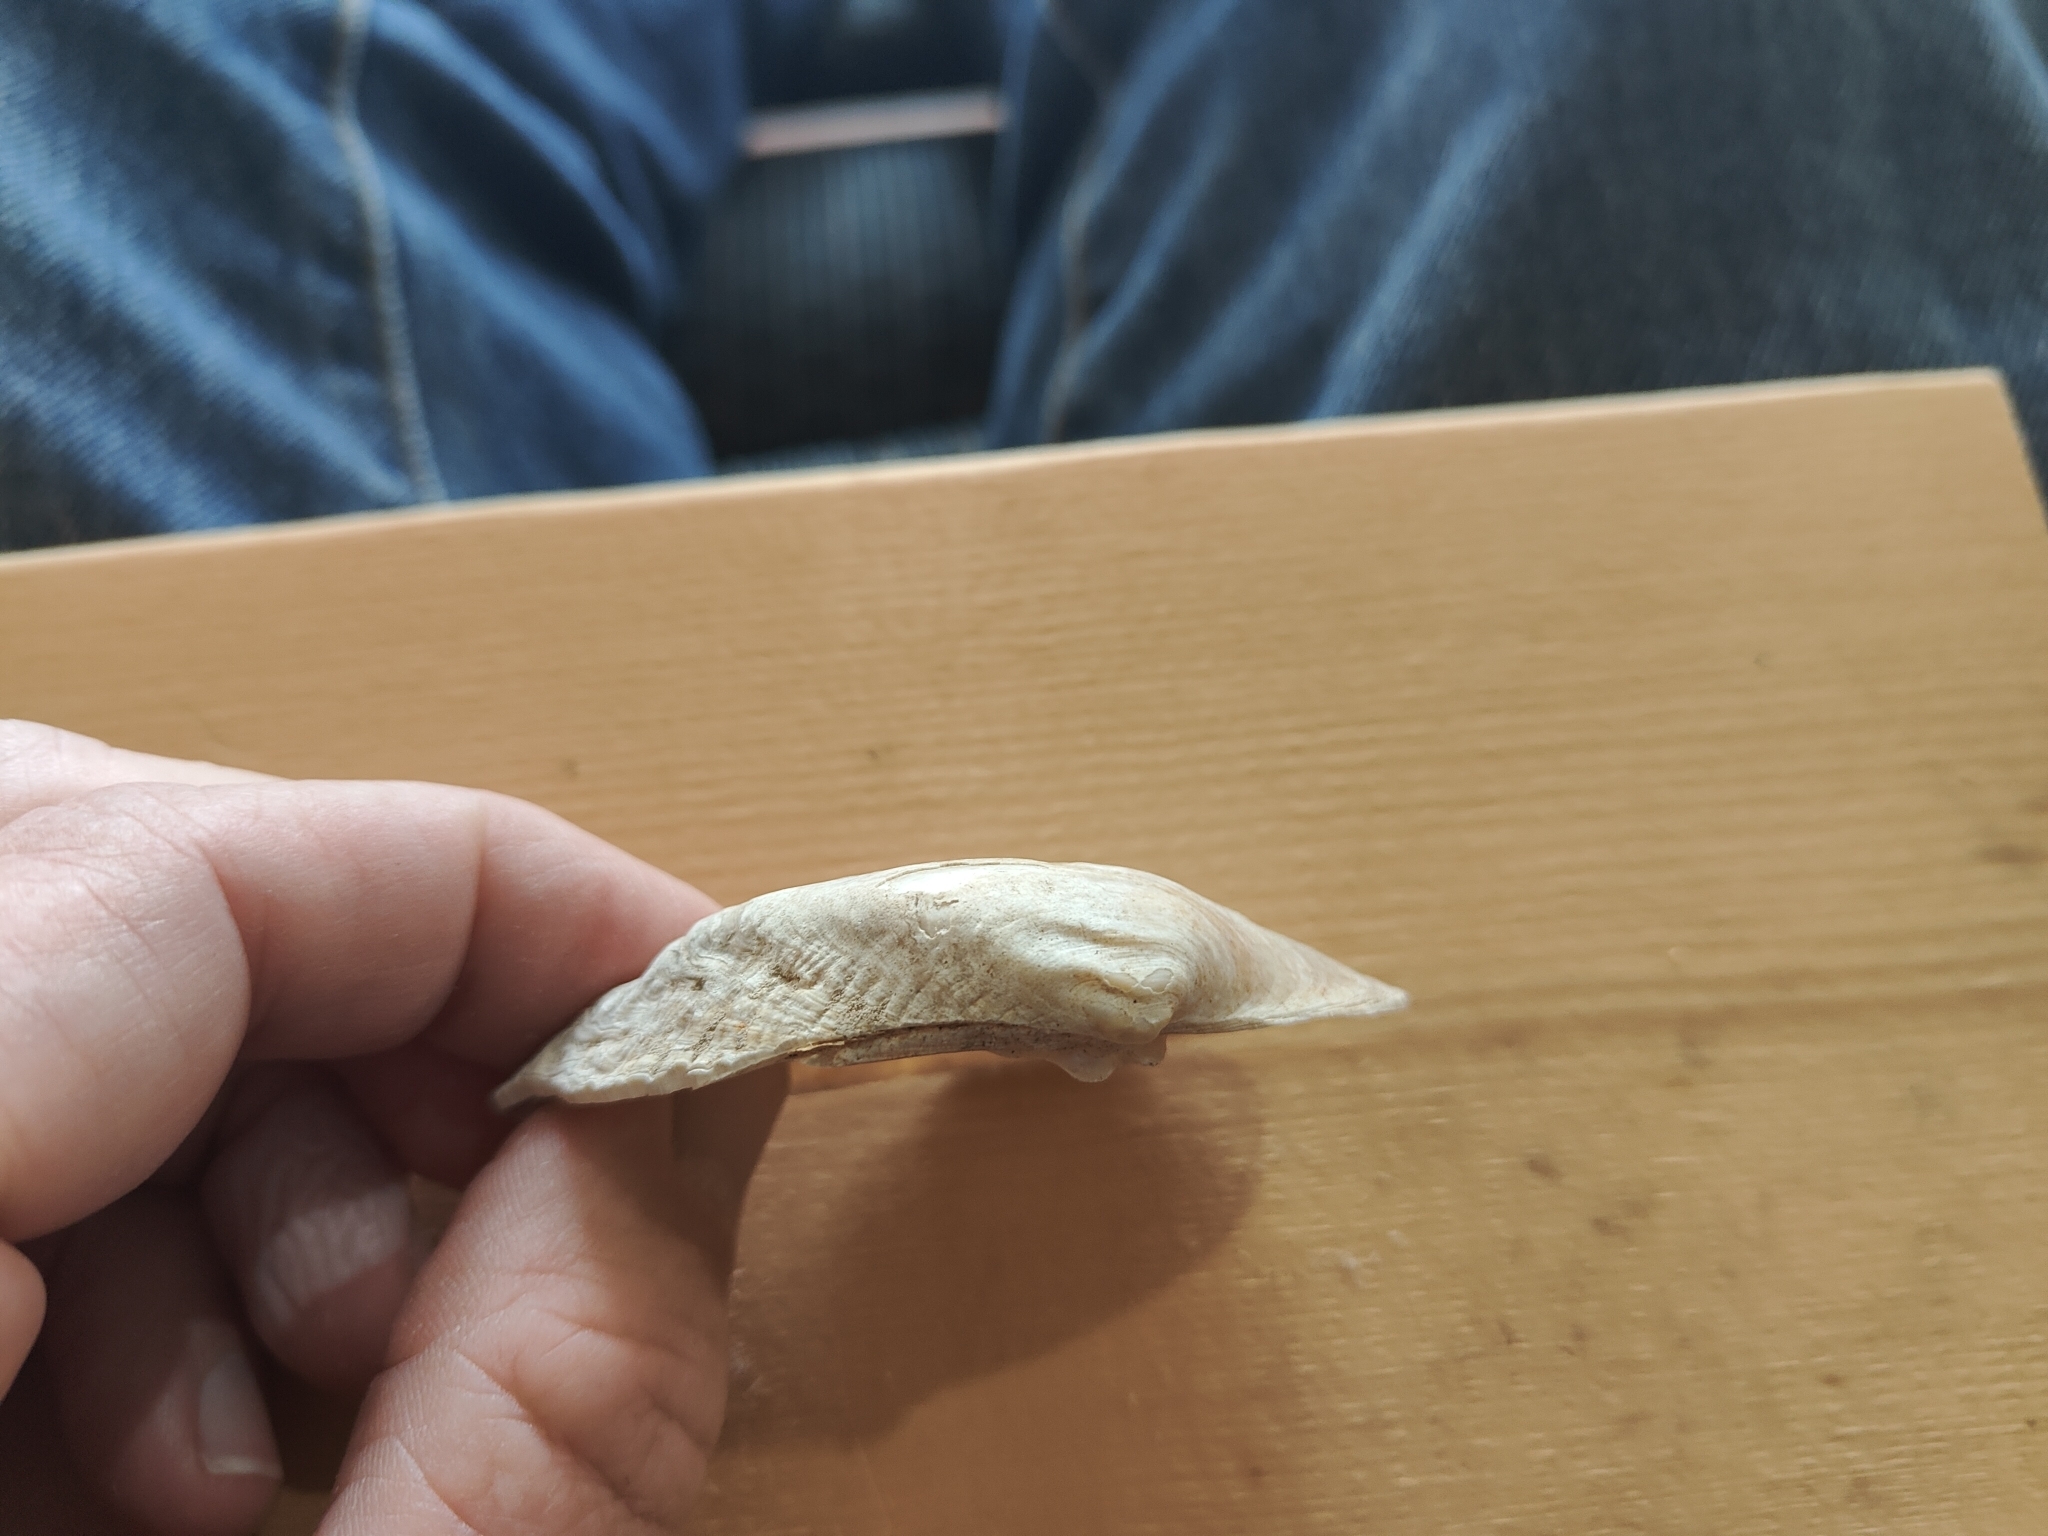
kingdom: Animalia
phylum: Mollusca
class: Bivalvia
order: Unionida
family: Unionidae
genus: Alasmidonta
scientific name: Alasmidonta marginata
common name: Elktoe
